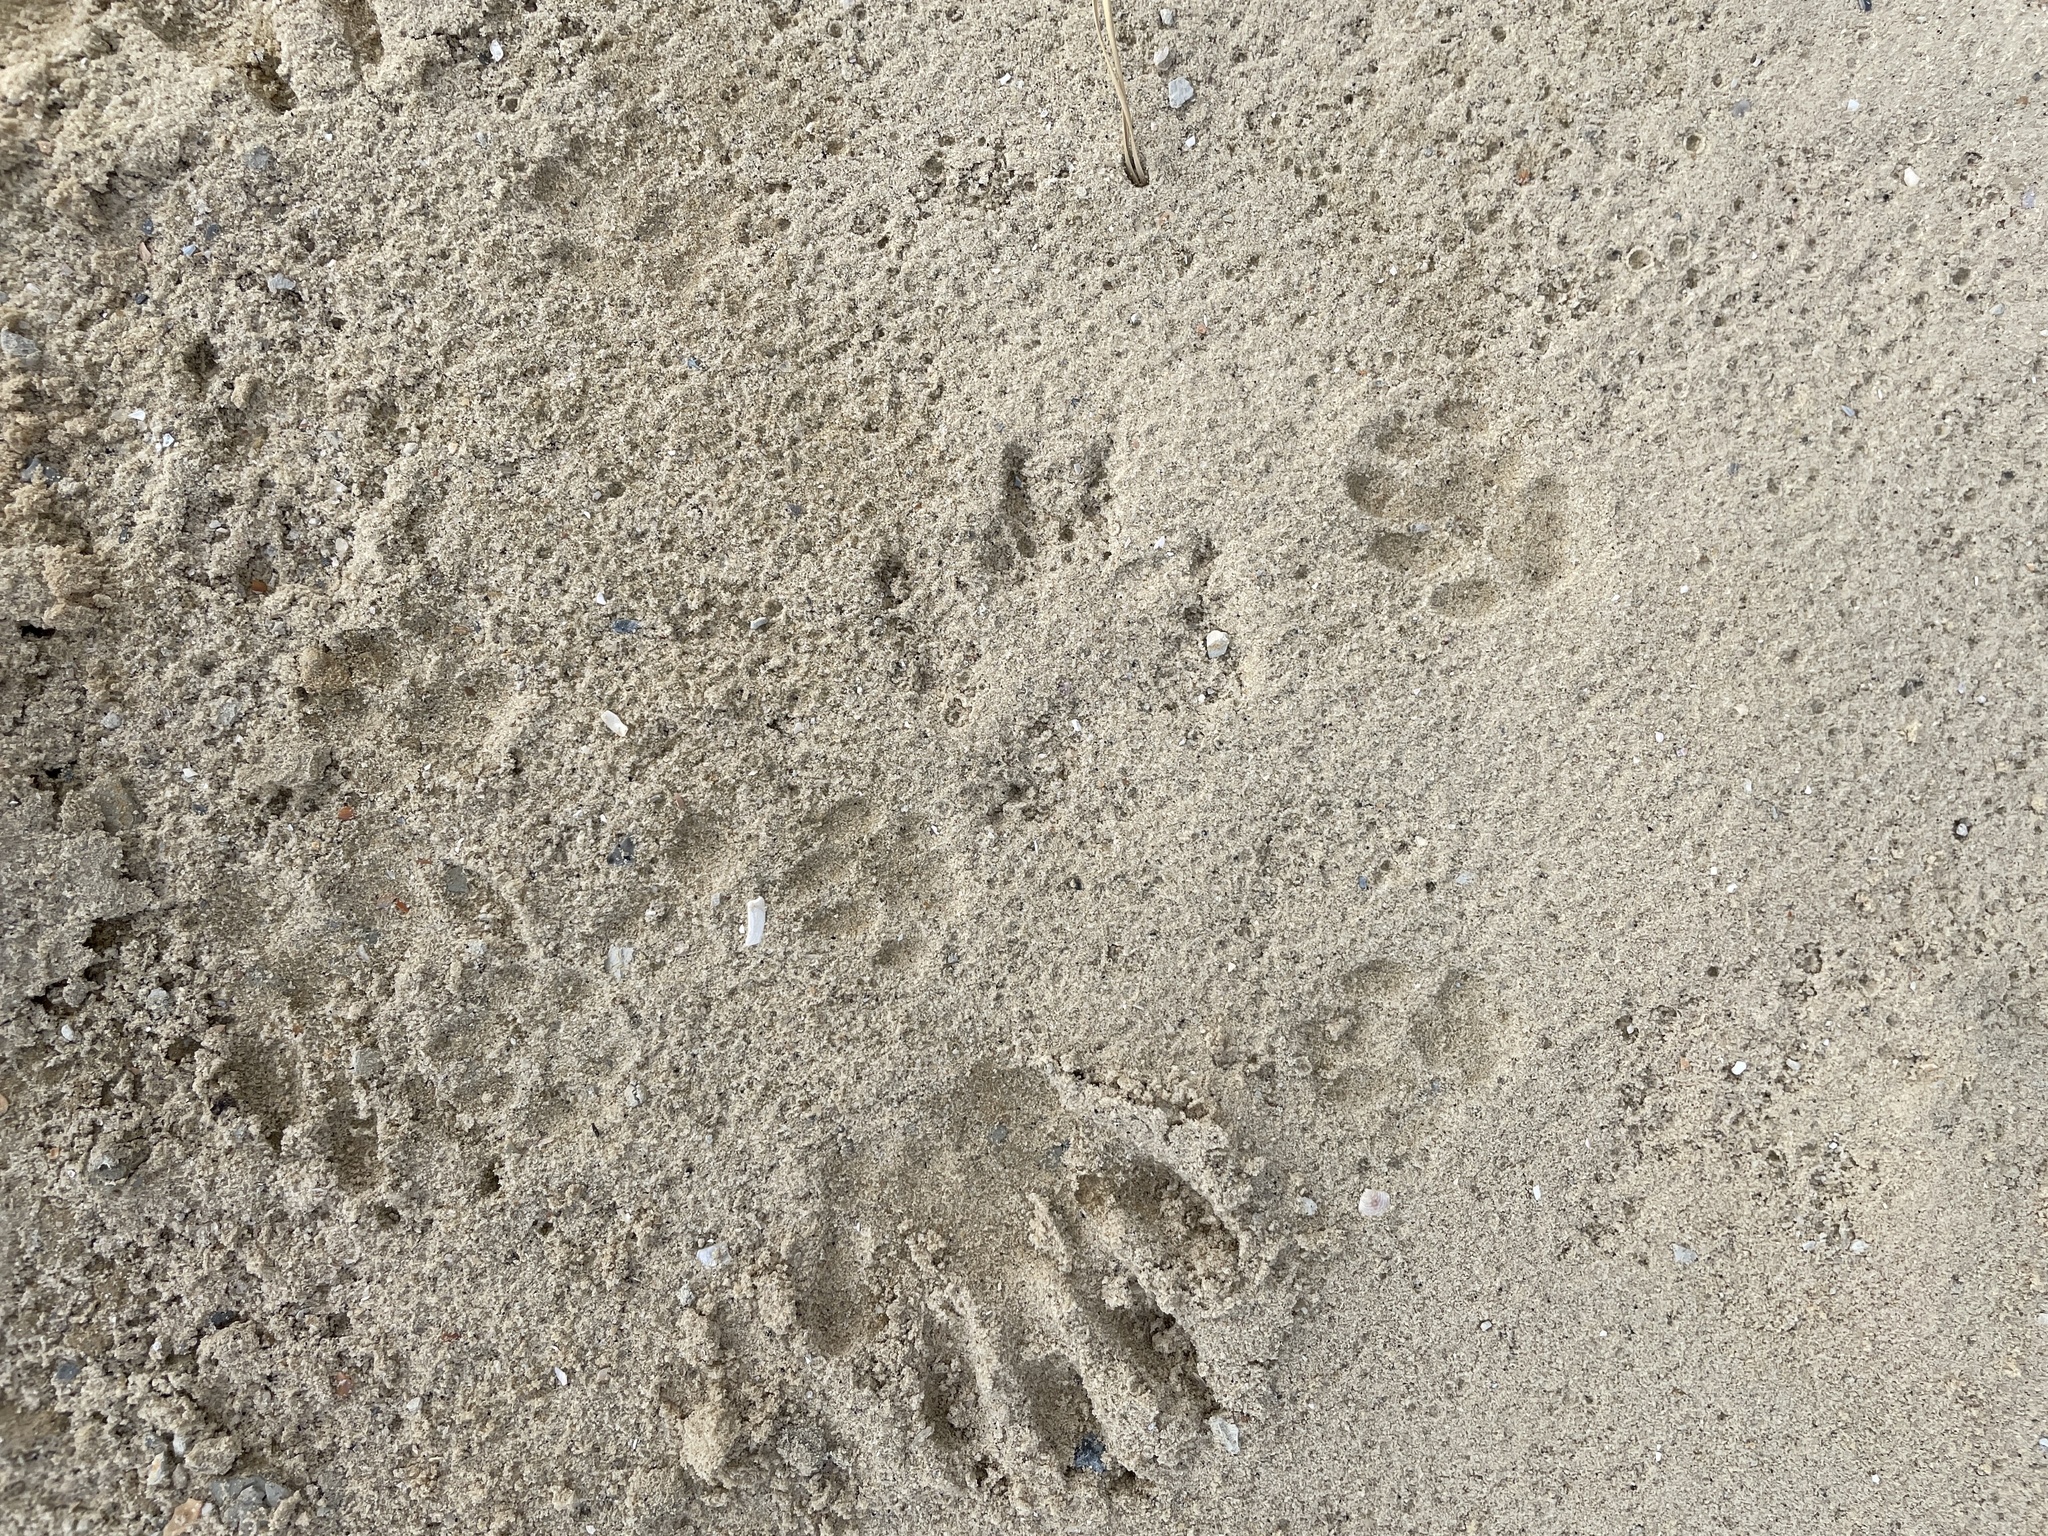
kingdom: Animalia
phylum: Chordata
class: Mammalia
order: Carnivora
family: Procyonidae
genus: Procyon
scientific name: Procyon lotor
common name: Raccoon
